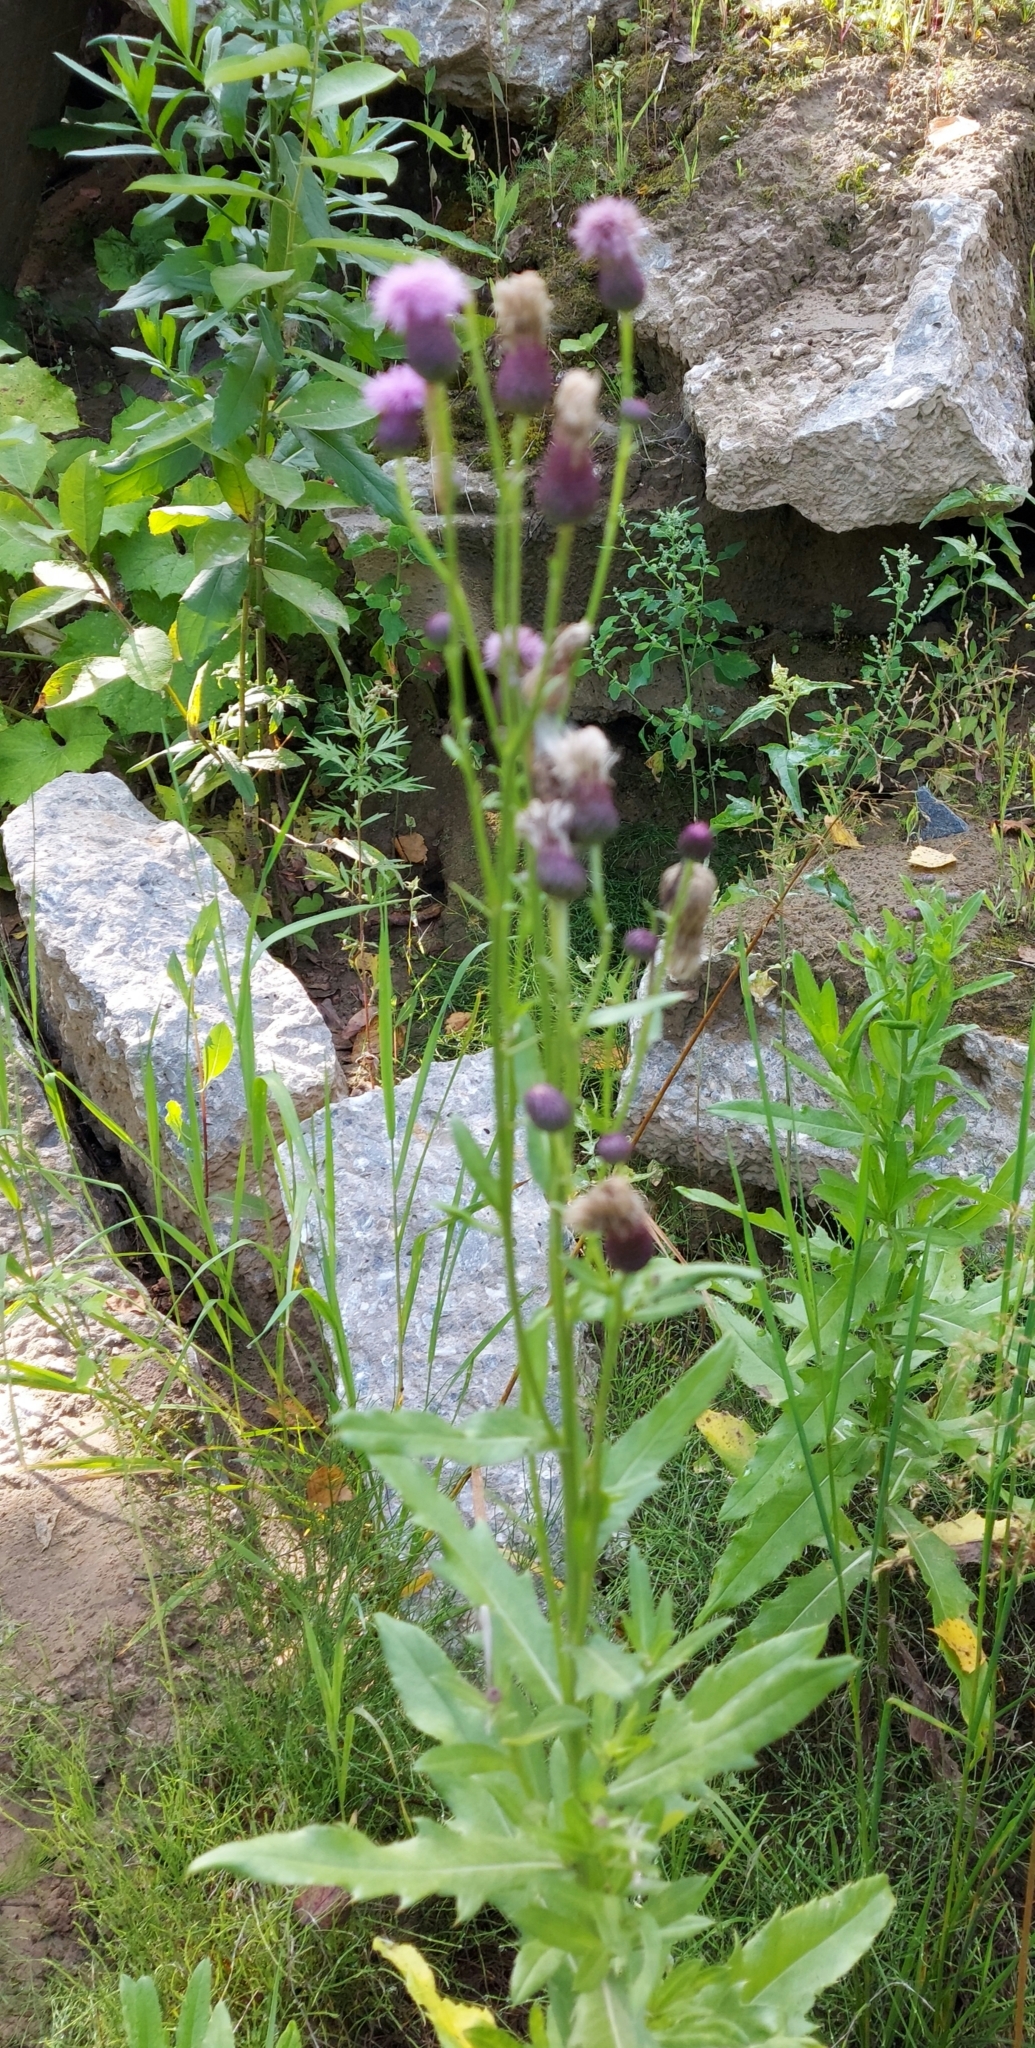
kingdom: Plantae
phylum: Tracheophyta
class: Magnoliopsida
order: Asterales
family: Asteraceae
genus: Cirsium
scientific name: Cirsium arvense
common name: Creeping thistle
